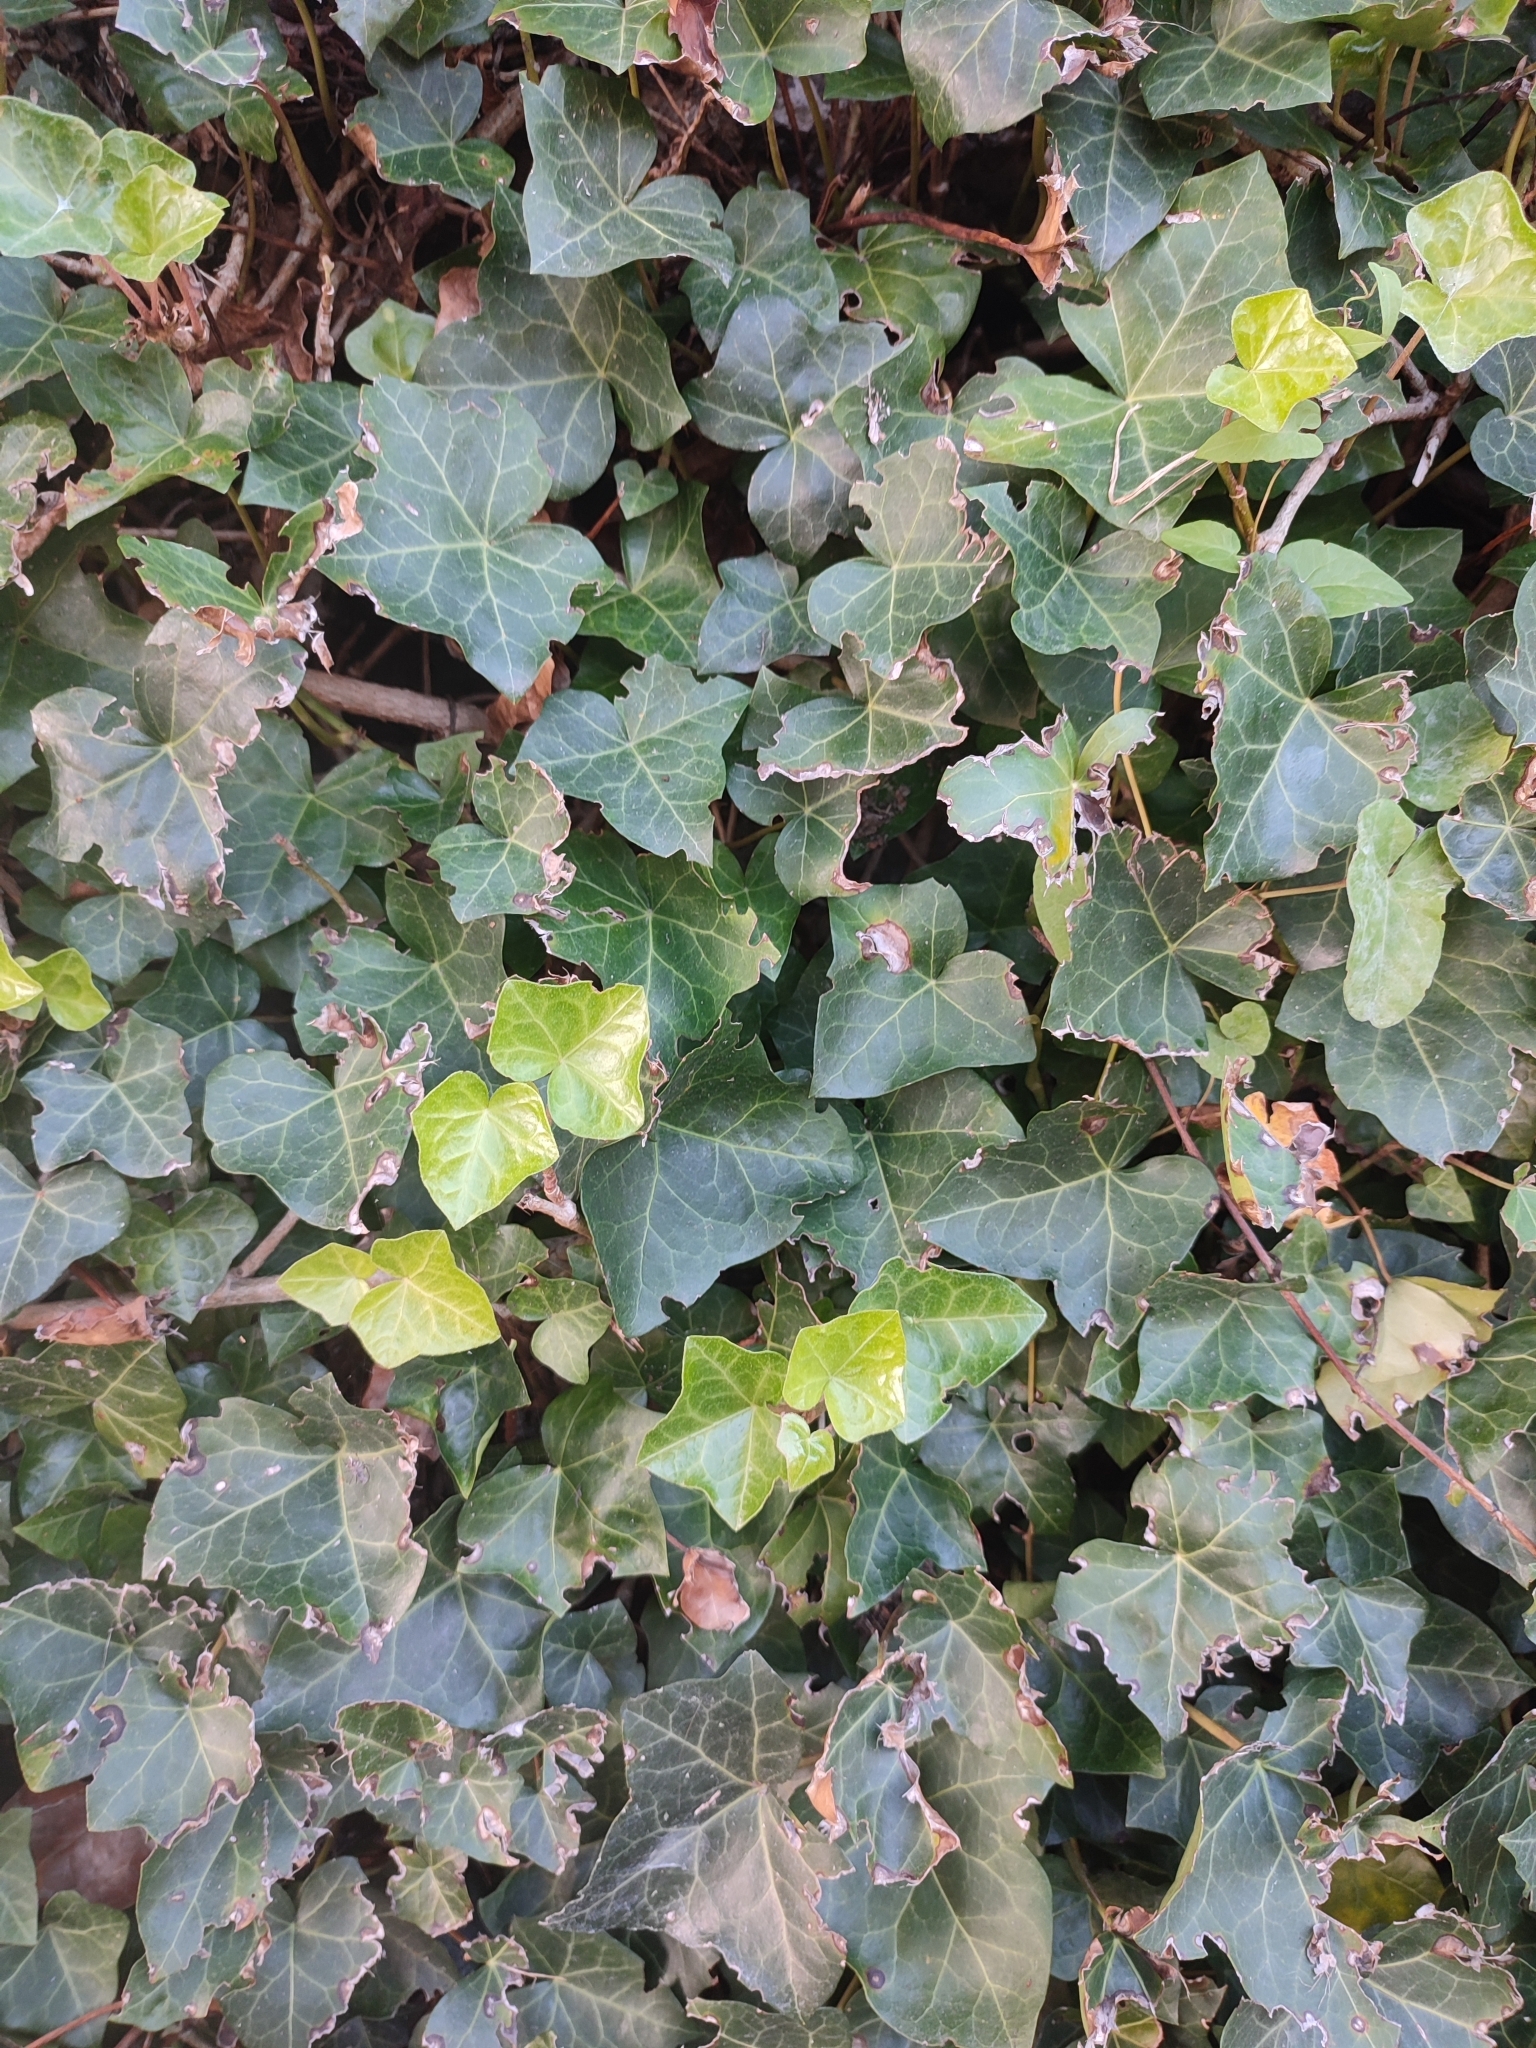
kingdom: Plantae
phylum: Tracheophyta
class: Magnoliopsida
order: Apiales
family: Araliaceae
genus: Hedera
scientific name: Hedera helix
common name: Ivy
